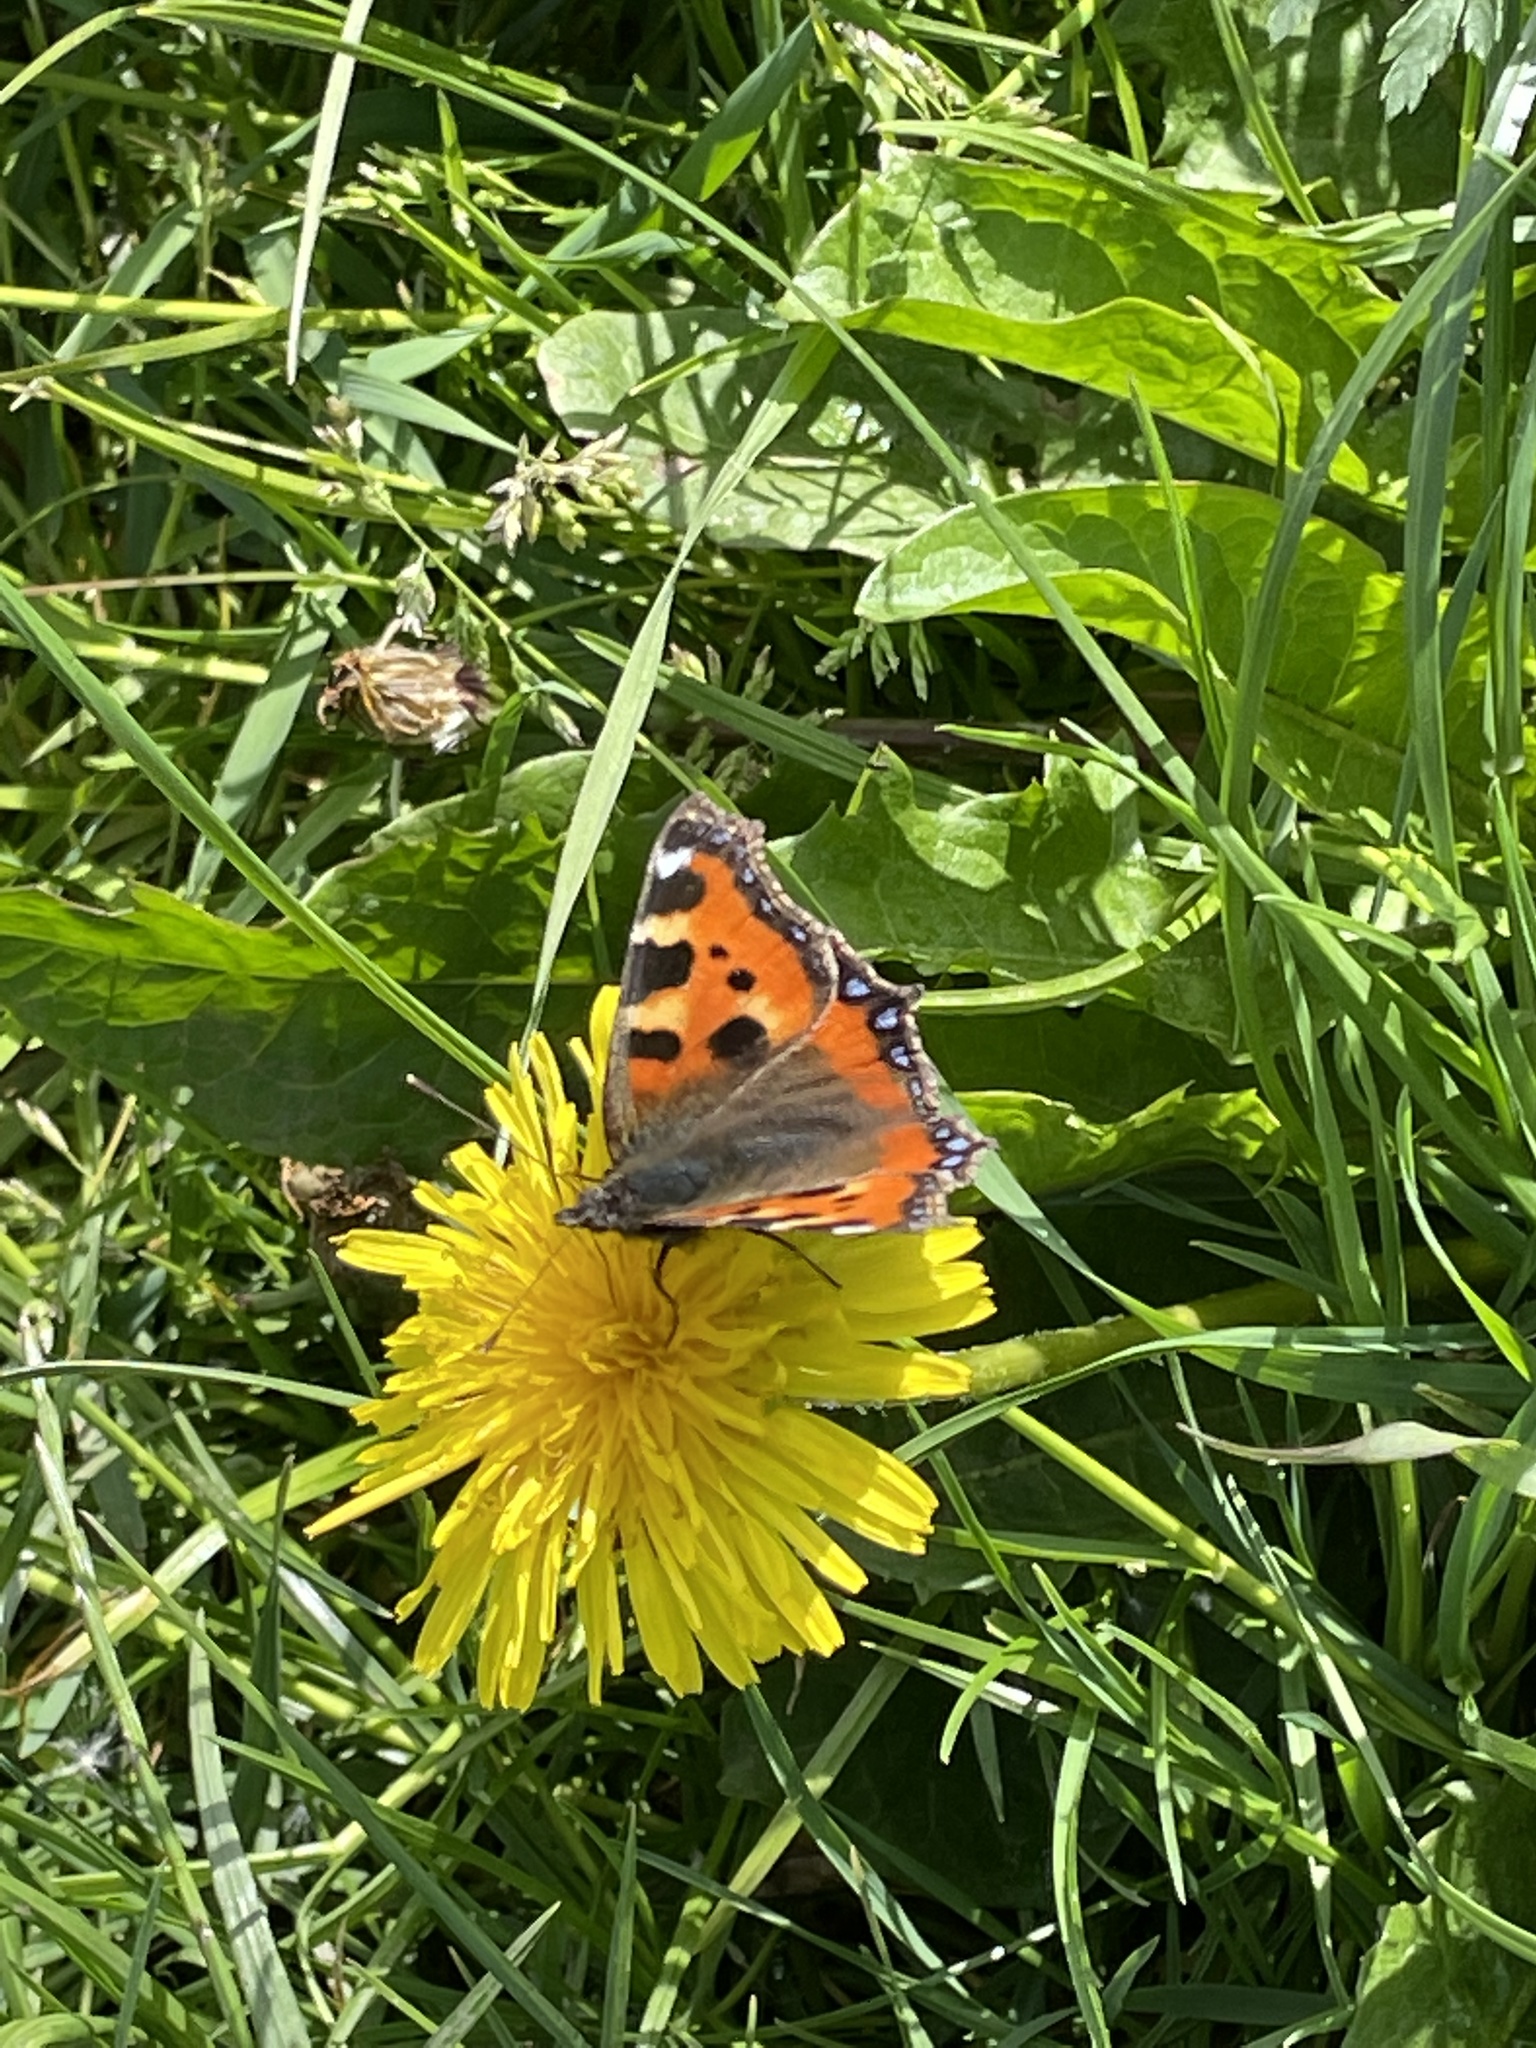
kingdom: Animalia
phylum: Arthropoda
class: Insecta
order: Lepidoptera
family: Nymphalidae
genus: Aglais
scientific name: Aglais urticae
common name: Small tortoiseshell
